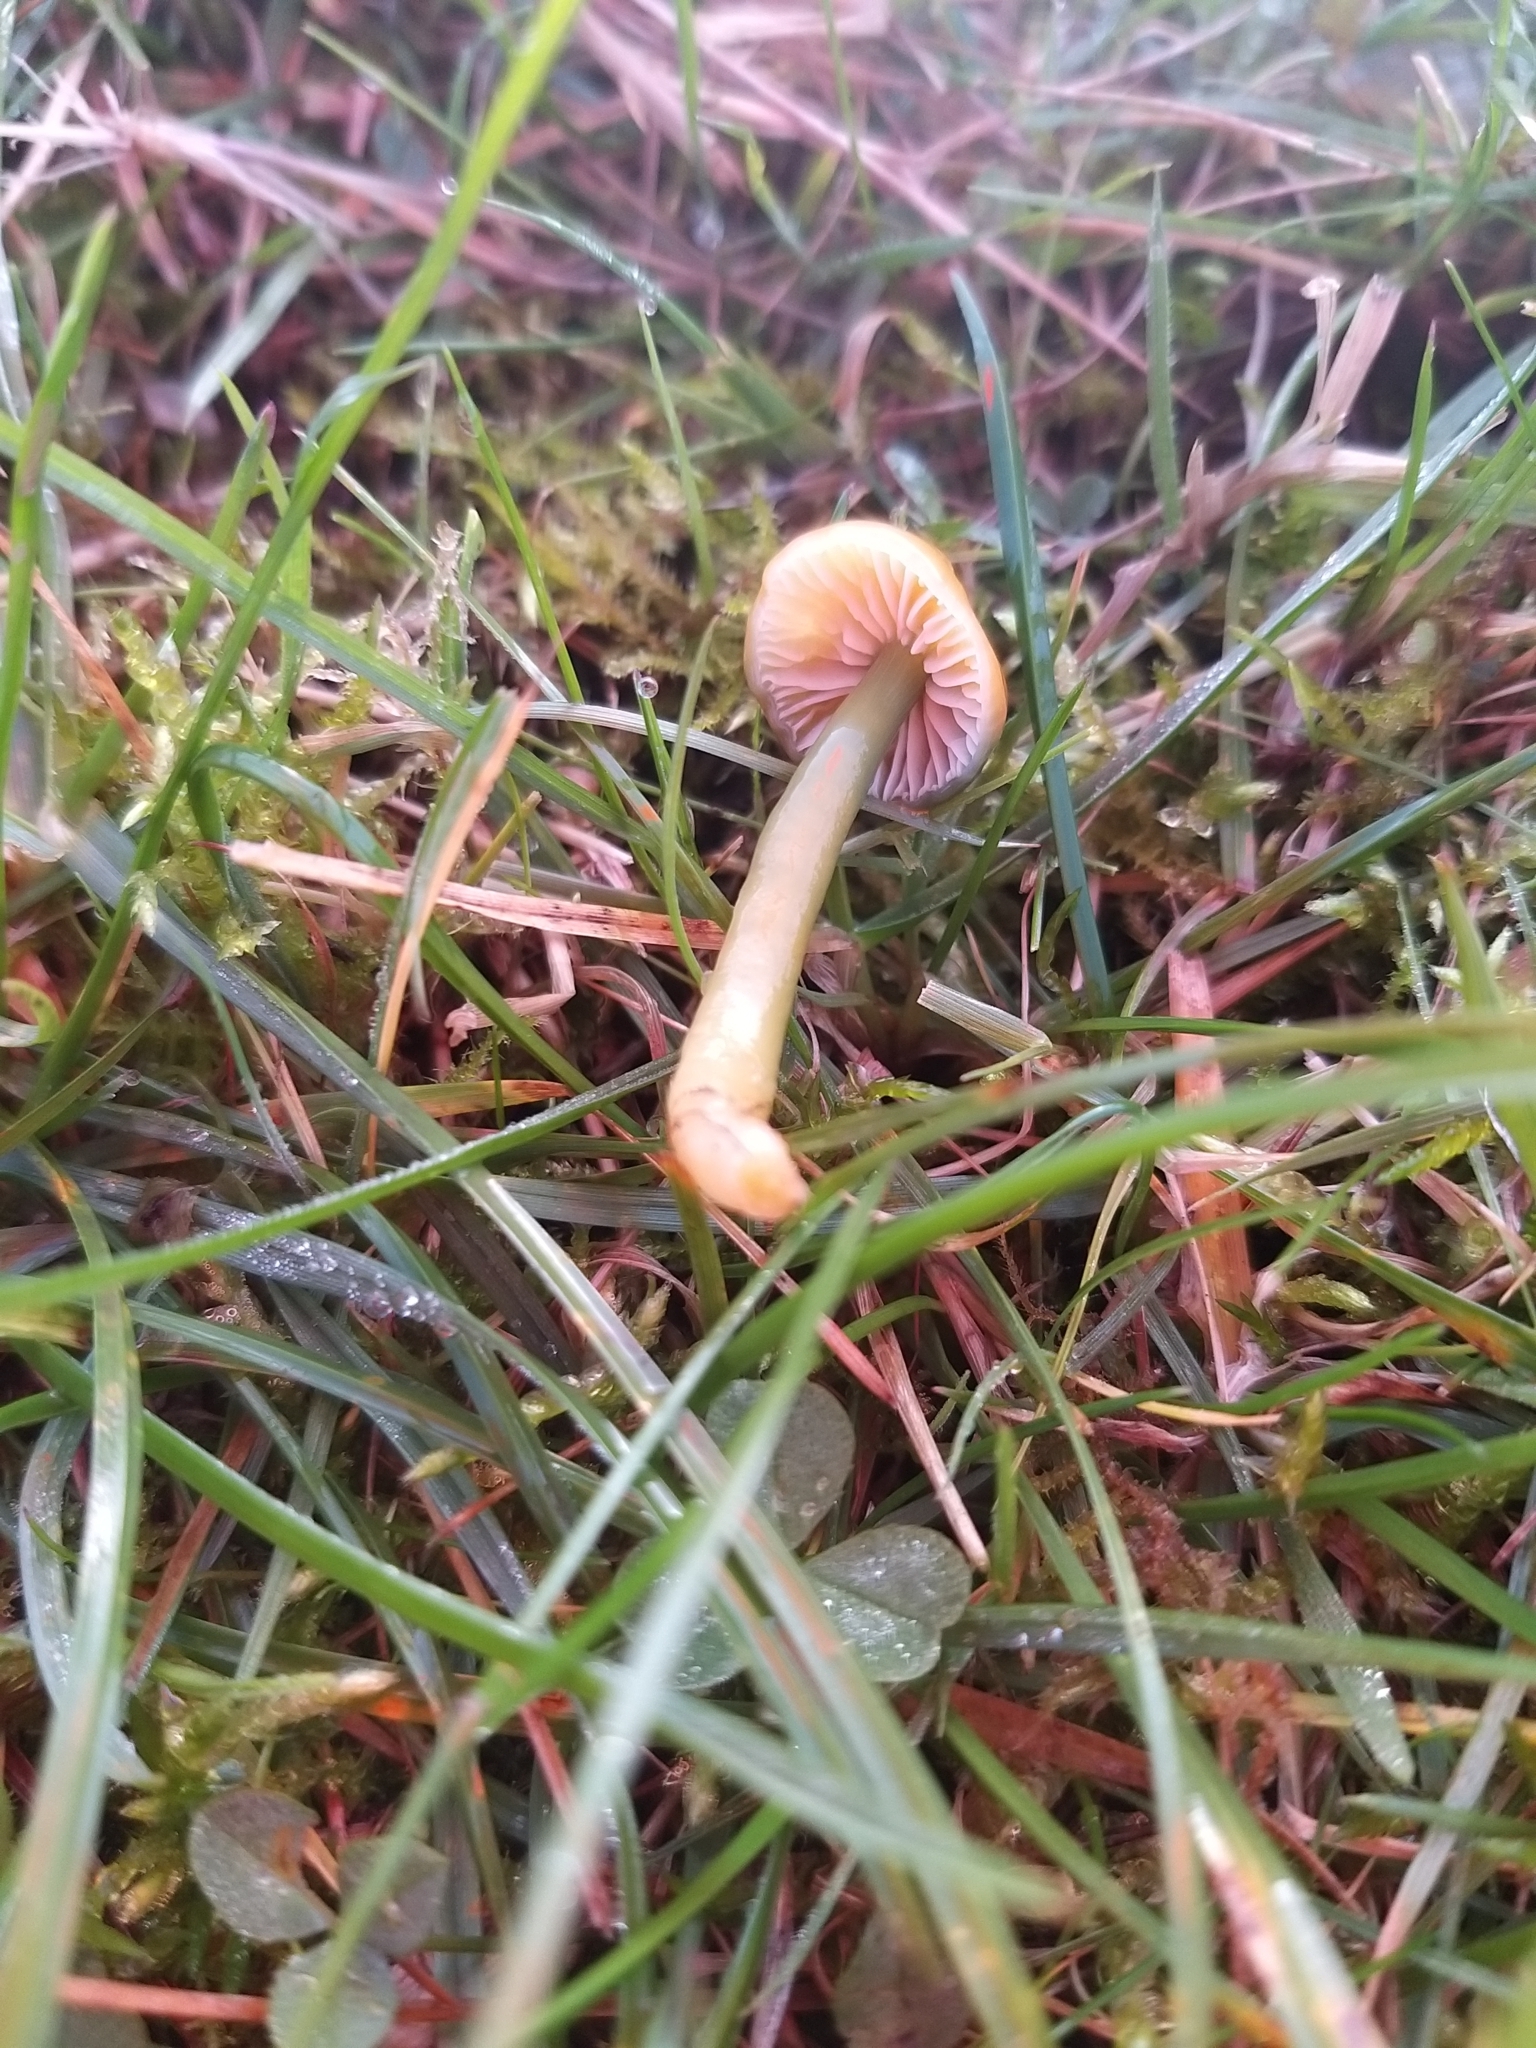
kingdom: Fungi
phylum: Basidiomycota
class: Agaricomycetes
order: Agaricales
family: Hygrophoraceae
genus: Gliophorus
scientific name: Gliophorus psittacinus
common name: Parrot wax-cap
